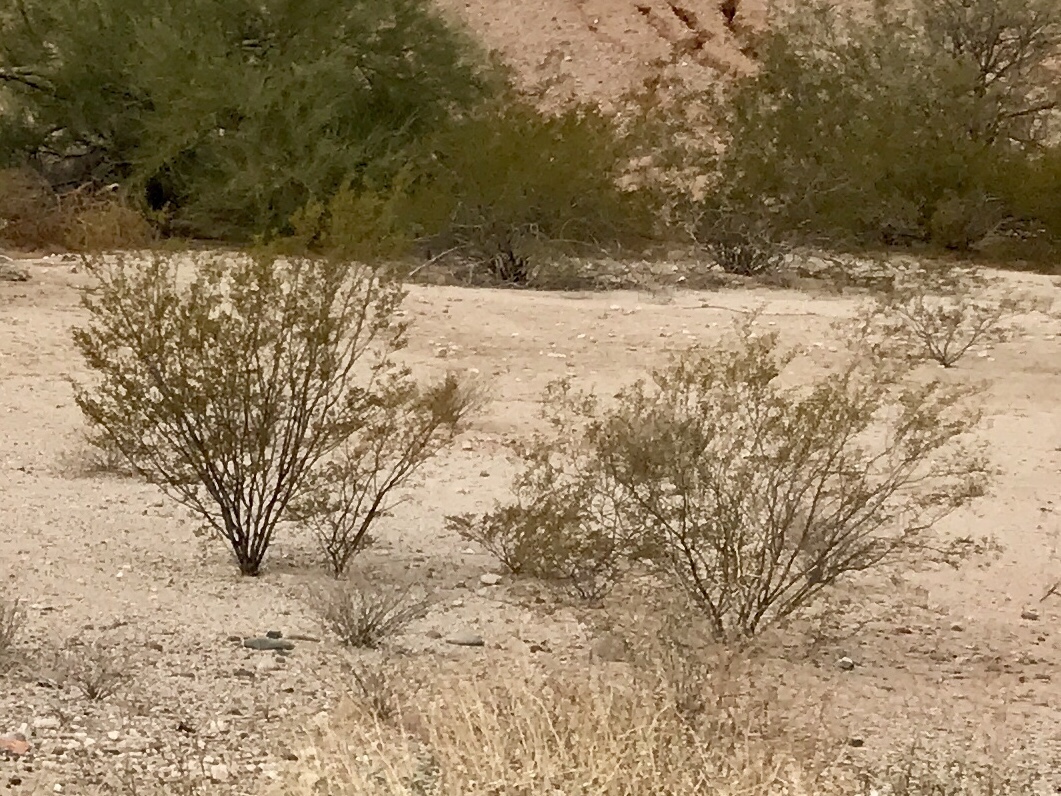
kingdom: Plantae
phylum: Tracheophyta
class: Magnoliopsida
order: Zygophyllales
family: Zygophyllaceae
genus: Larrea
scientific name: Larrea tridentata
